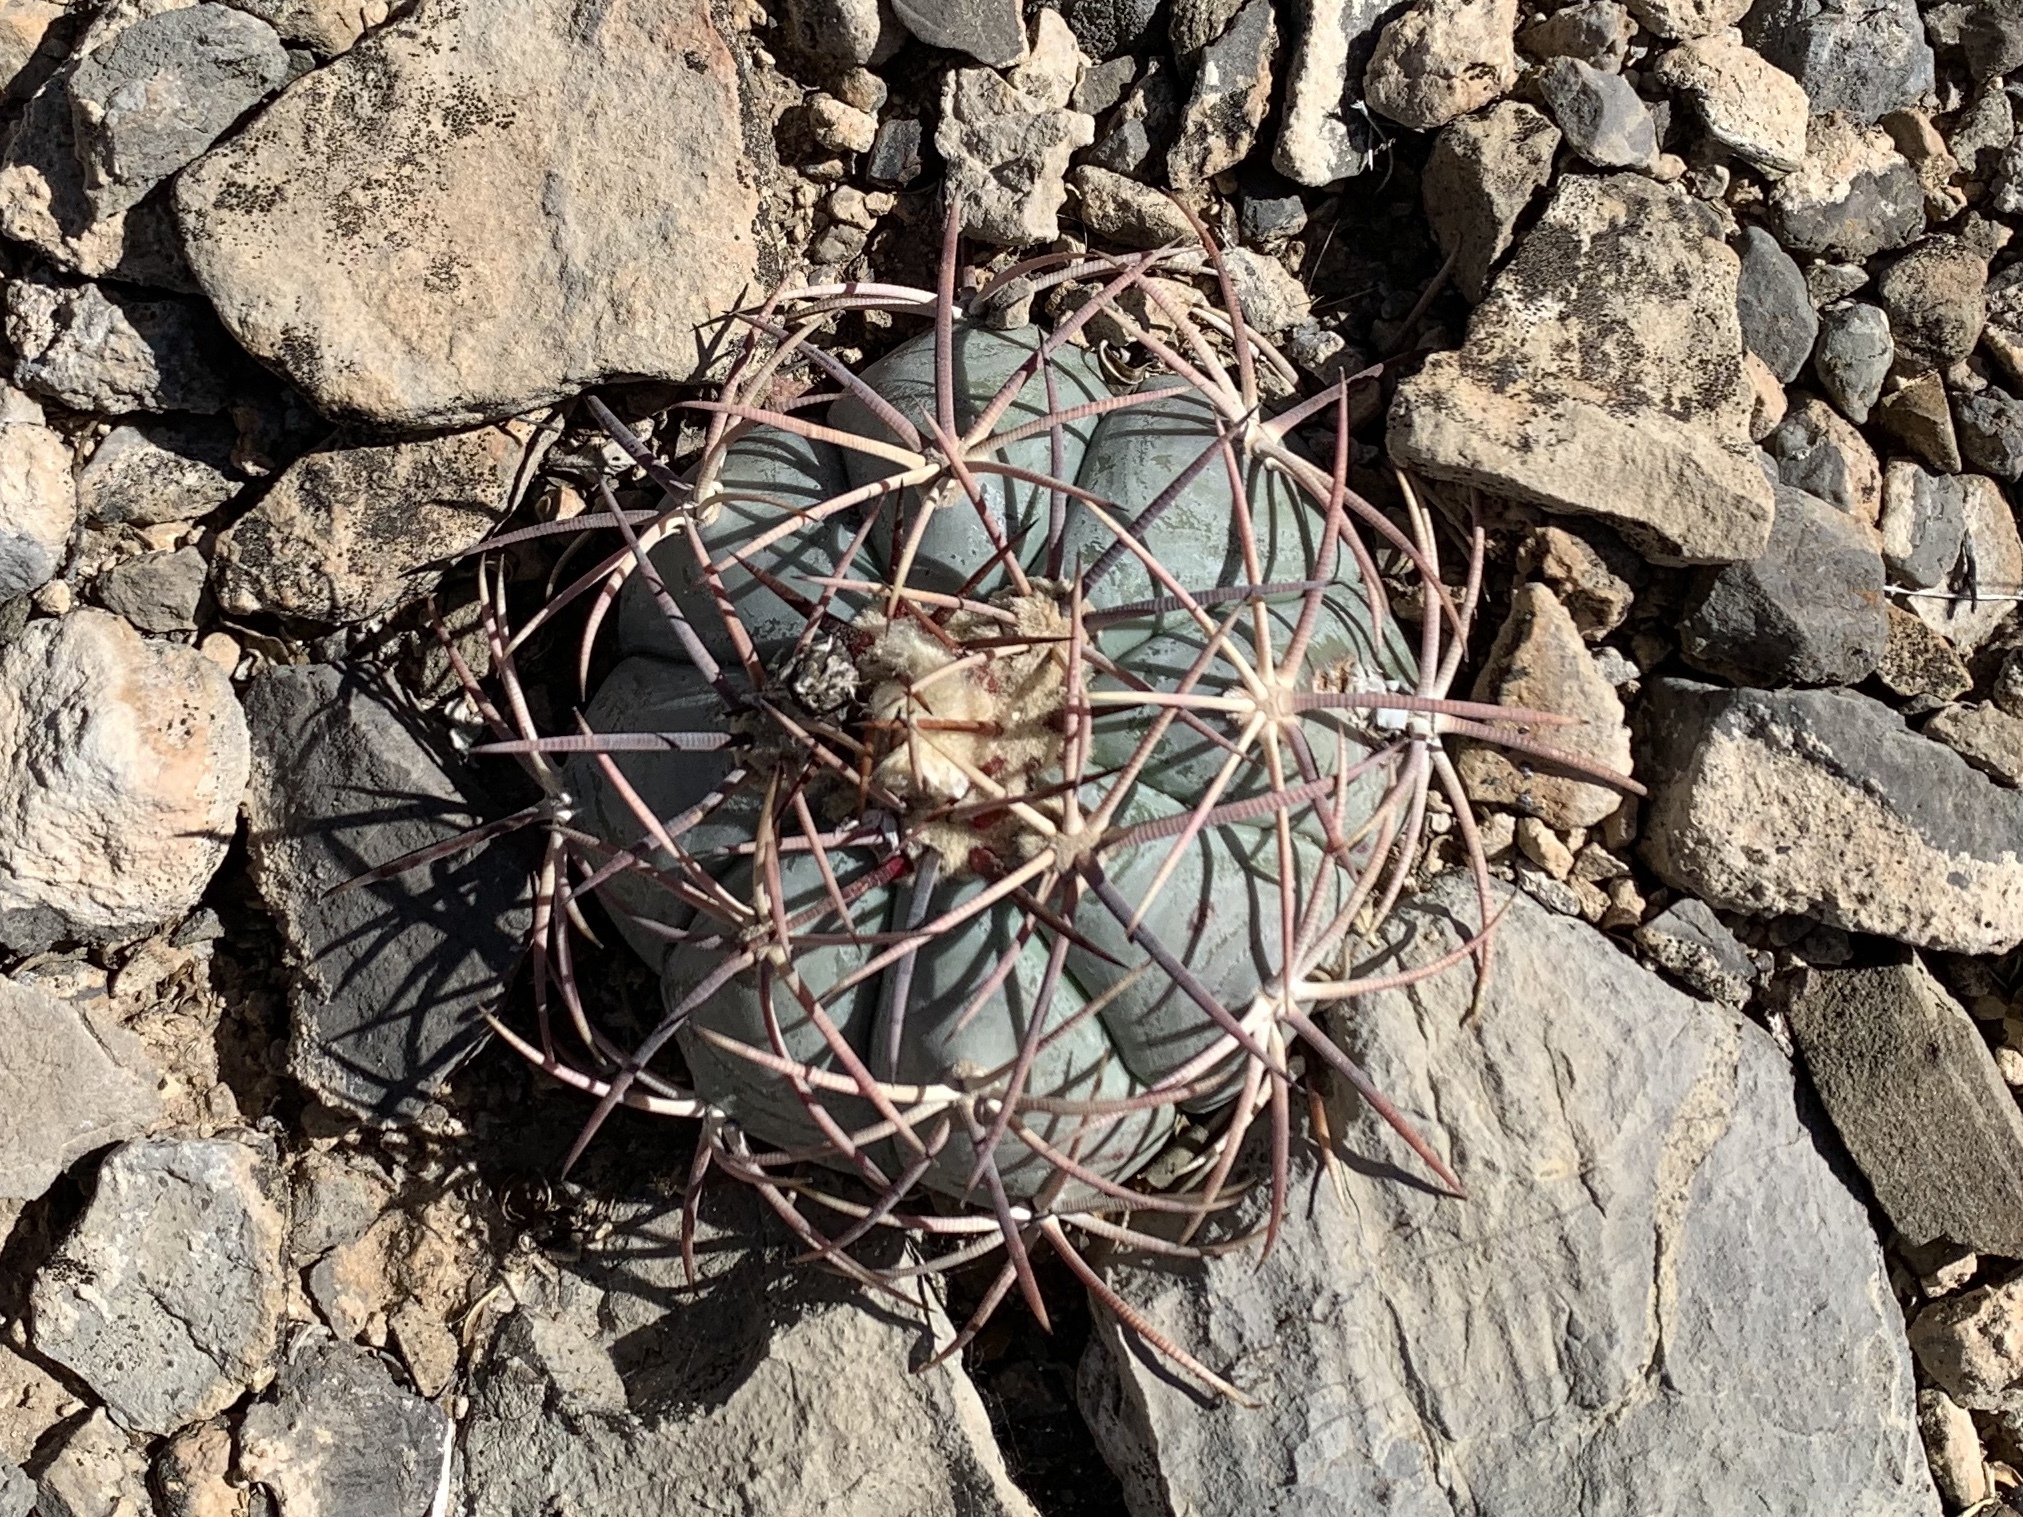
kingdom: Plantae
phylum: Tracheophyta
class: Magnoliopsida
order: Caryophyllales
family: Cactaceae
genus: Echinocactus
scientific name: Echinocactus horizonthalonius
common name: Devilshead
